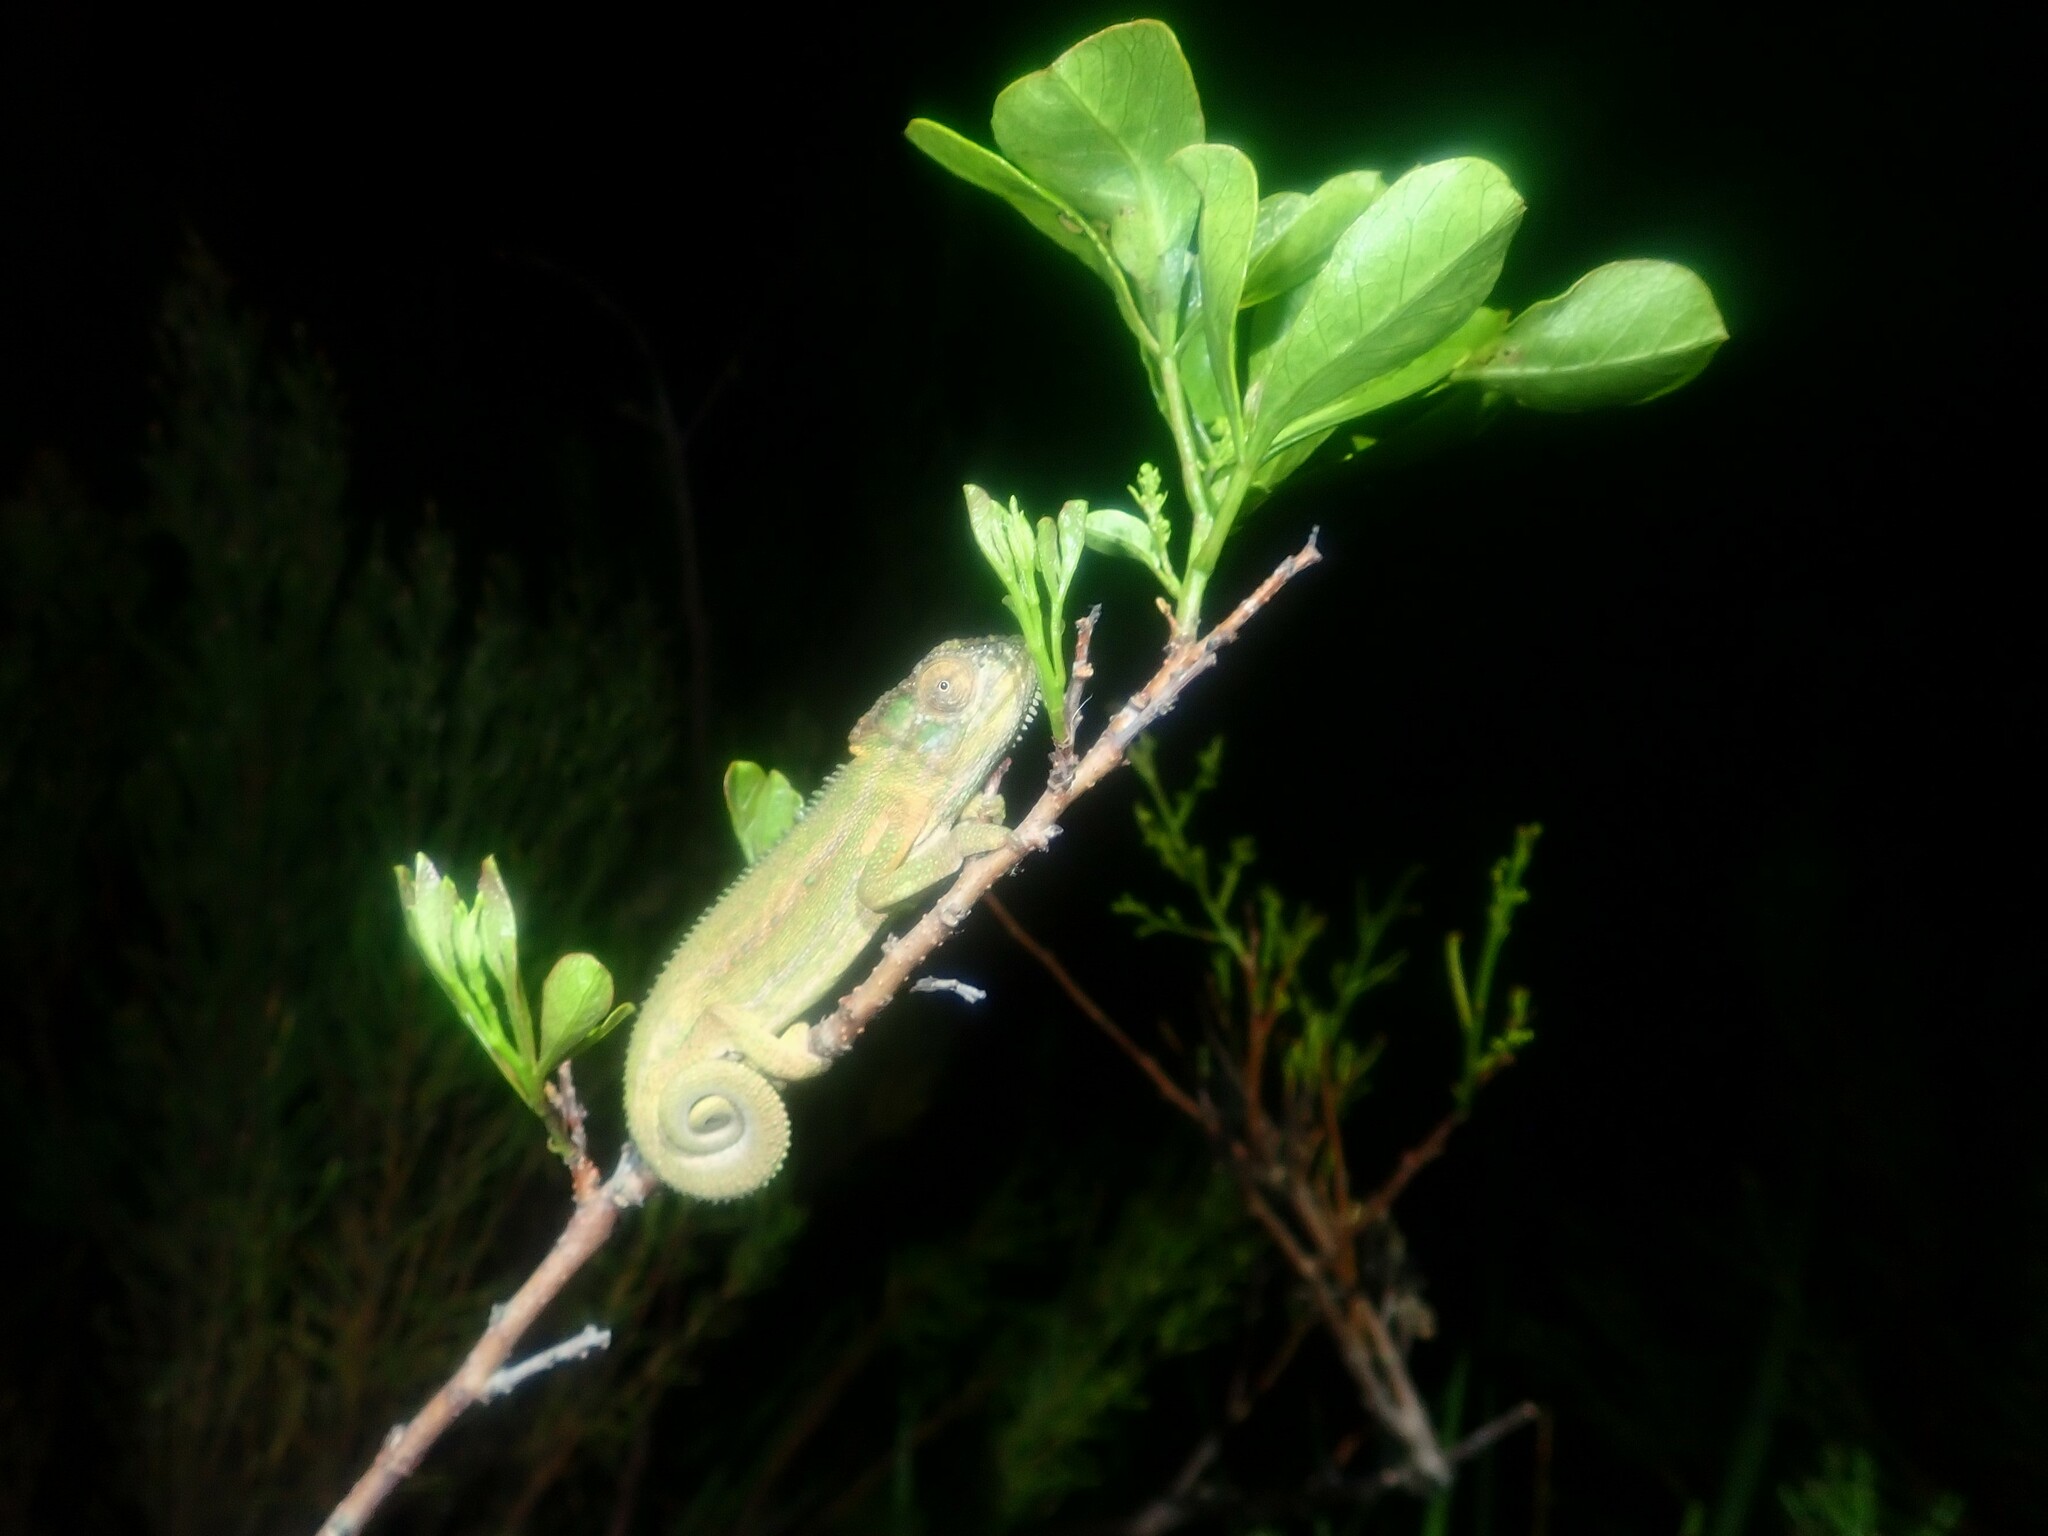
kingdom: Animalia
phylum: Chordata
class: Squamata
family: Chamaeleonidae
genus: Bradypodion
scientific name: Bradypodion pumilum
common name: Cape dwarf chameleon
